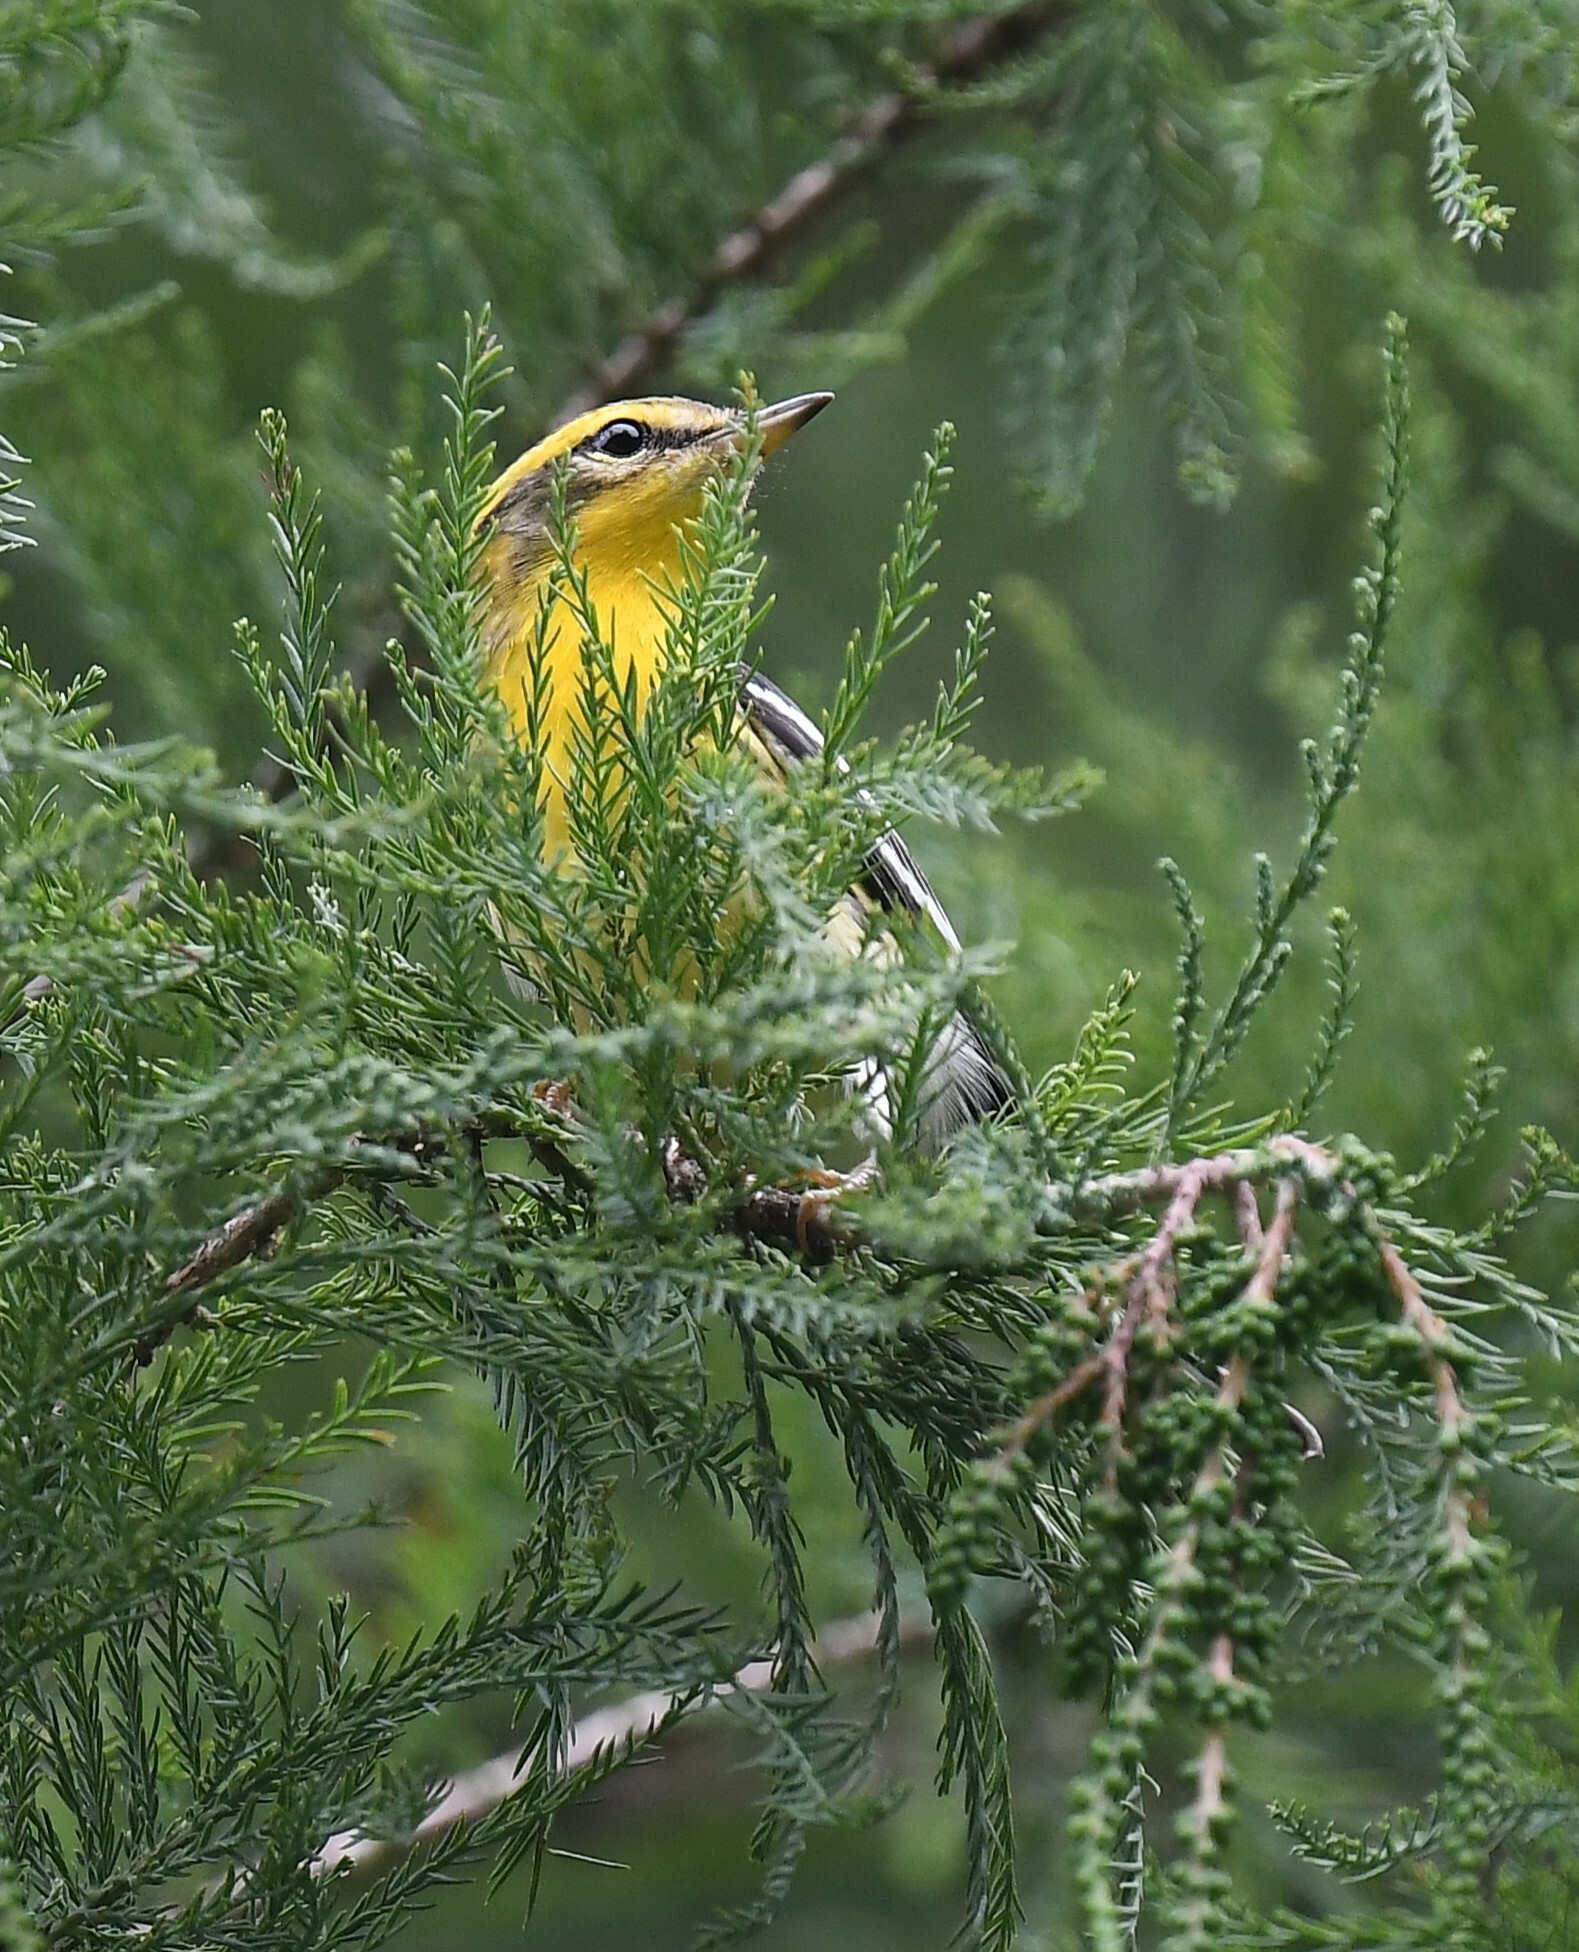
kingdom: Animalia
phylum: Chordata
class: Aves
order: Passeriformes
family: Parulidae
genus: Setophaga
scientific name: Setophaga fusca
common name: Blackburnian warbler
